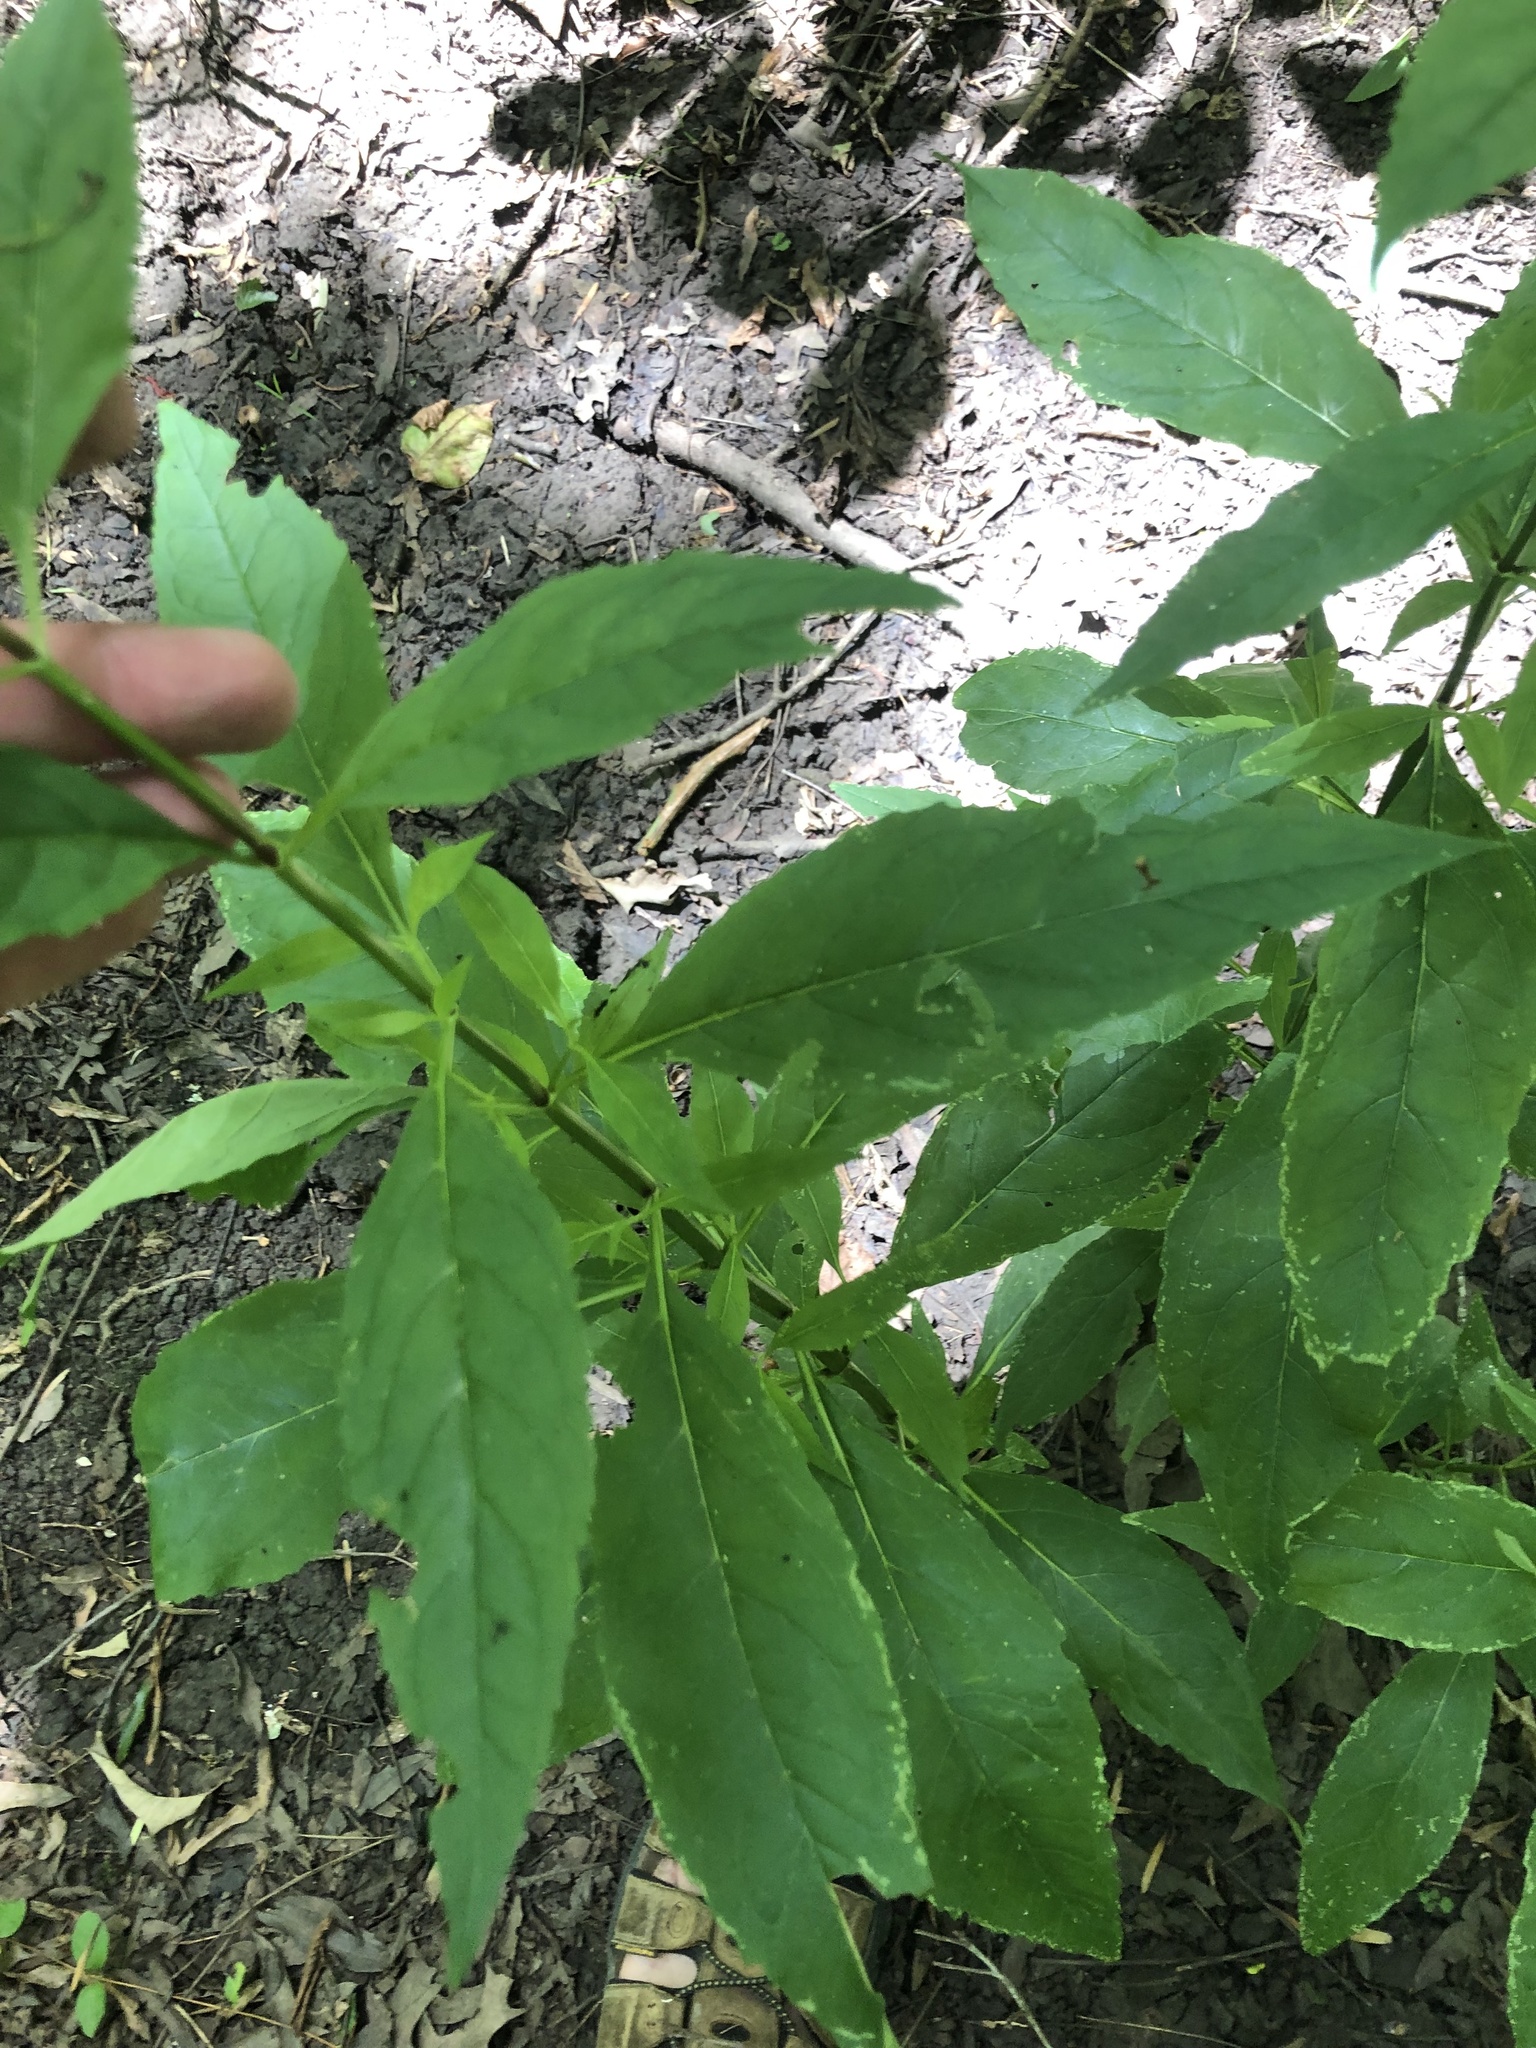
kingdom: Plantae
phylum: Tracheophyta
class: Magnoliopsida
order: Lamiales
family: Phrymaceae
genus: Mimulus
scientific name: Mimulus alatus
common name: Sharp-wing monkey-flower
